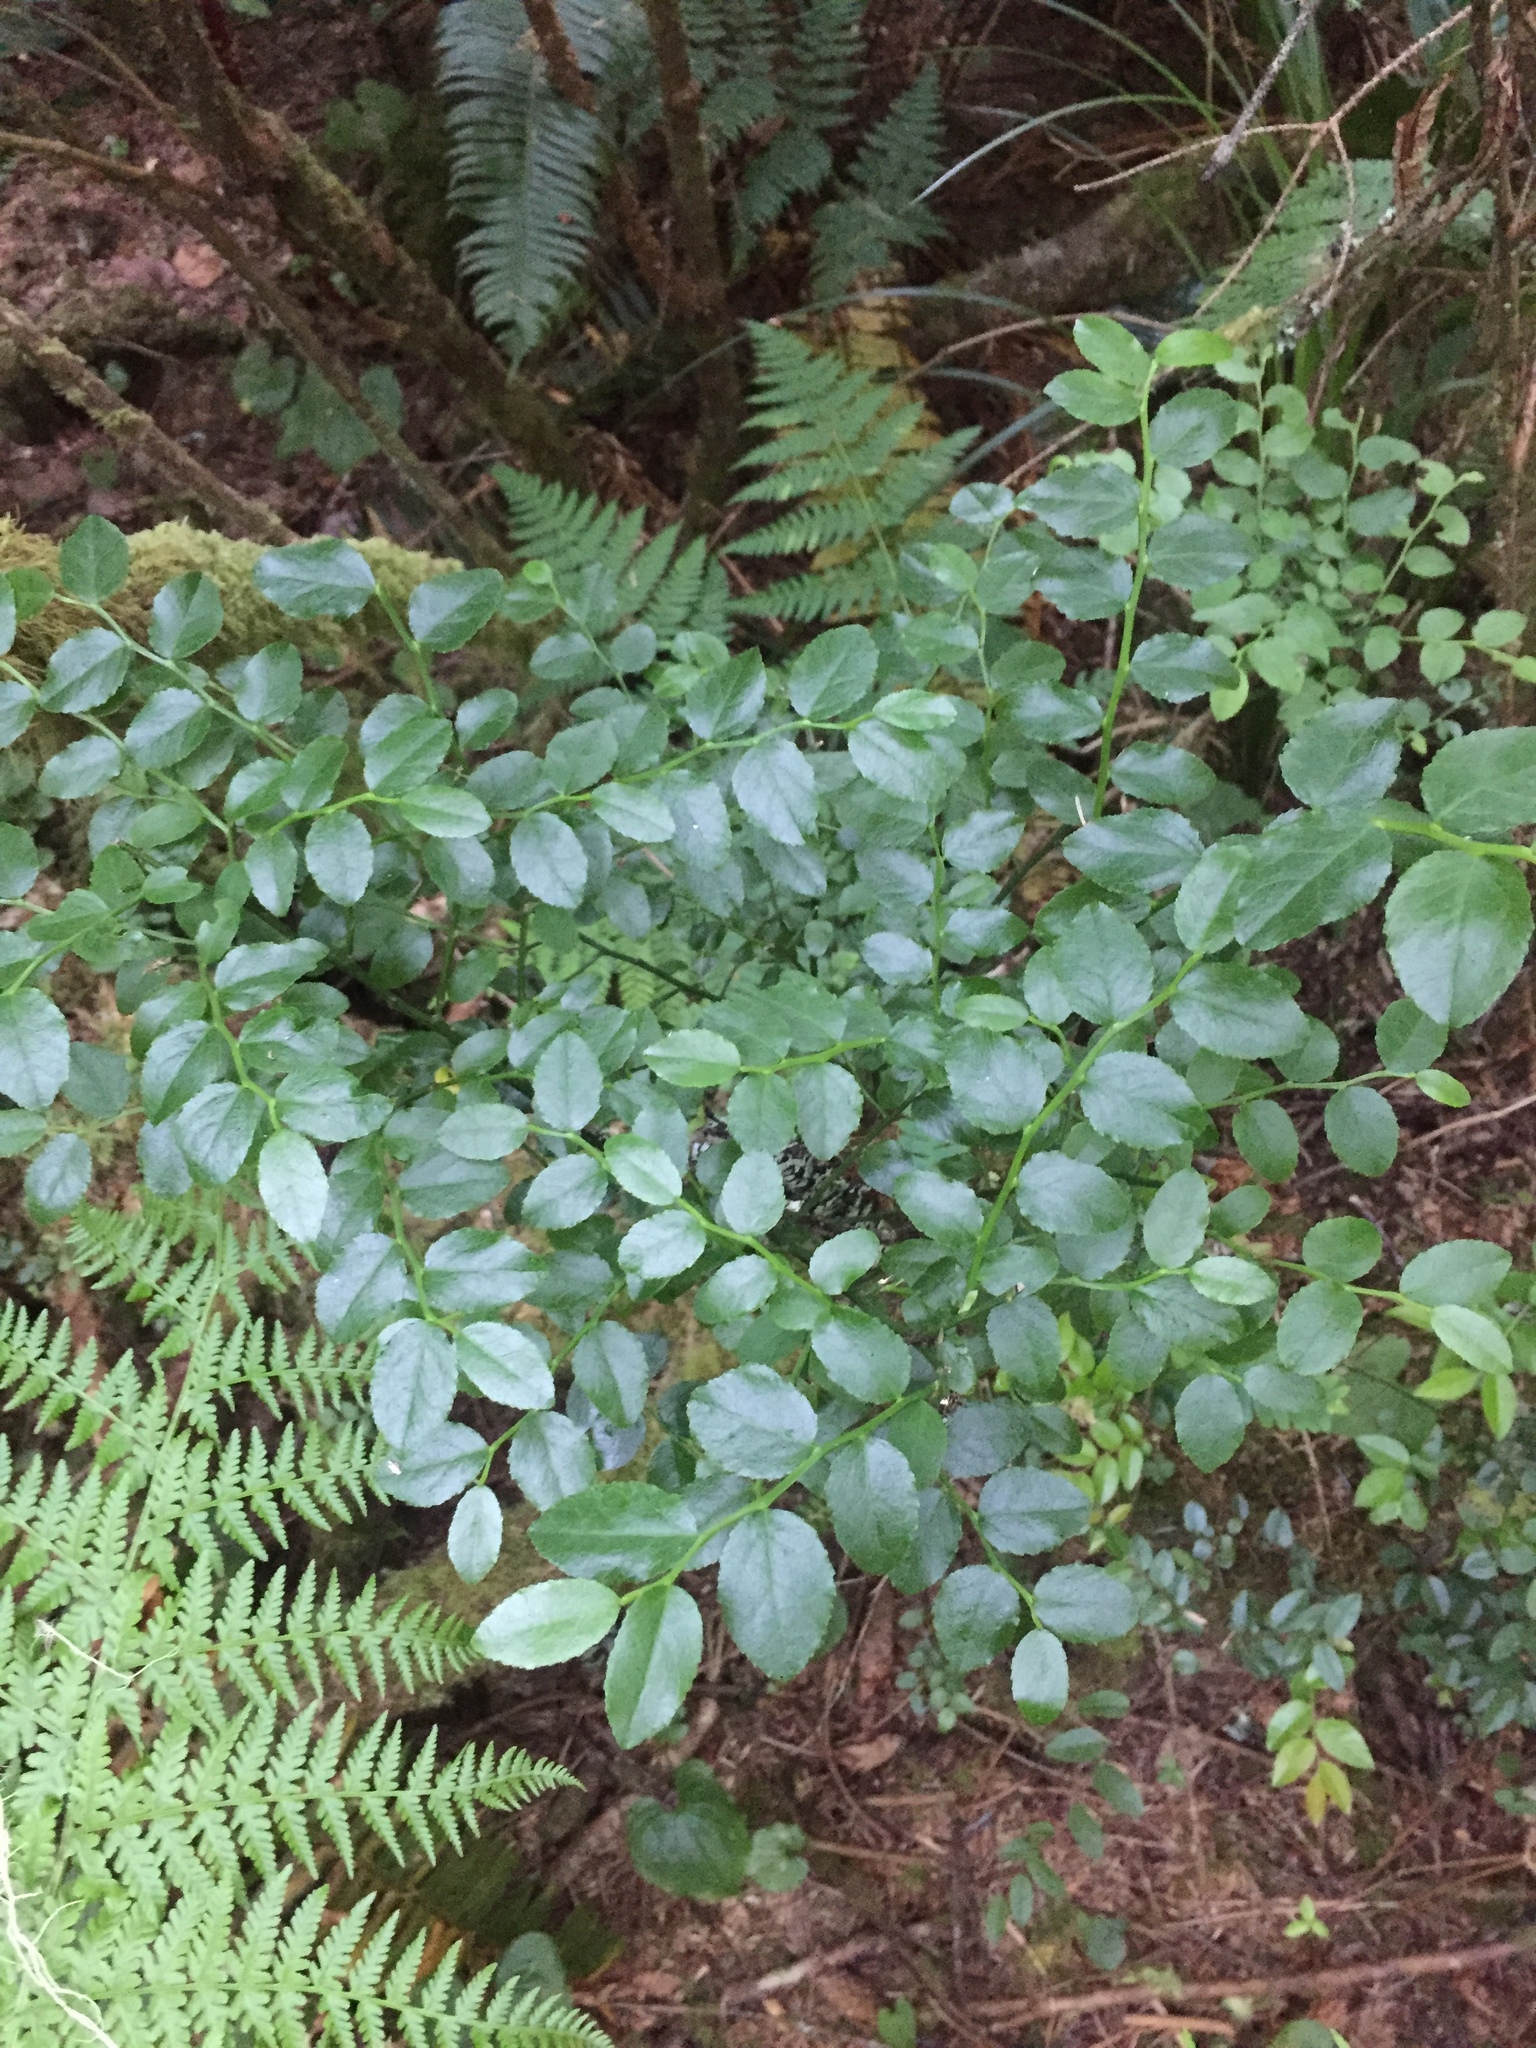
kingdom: Plantae
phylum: Tracheophyta
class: Magnoliopsida
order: Ericales
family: Ericaceae
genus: Vaccinium
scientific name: Vaccinium parvifolium
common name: Red-huckleberry
